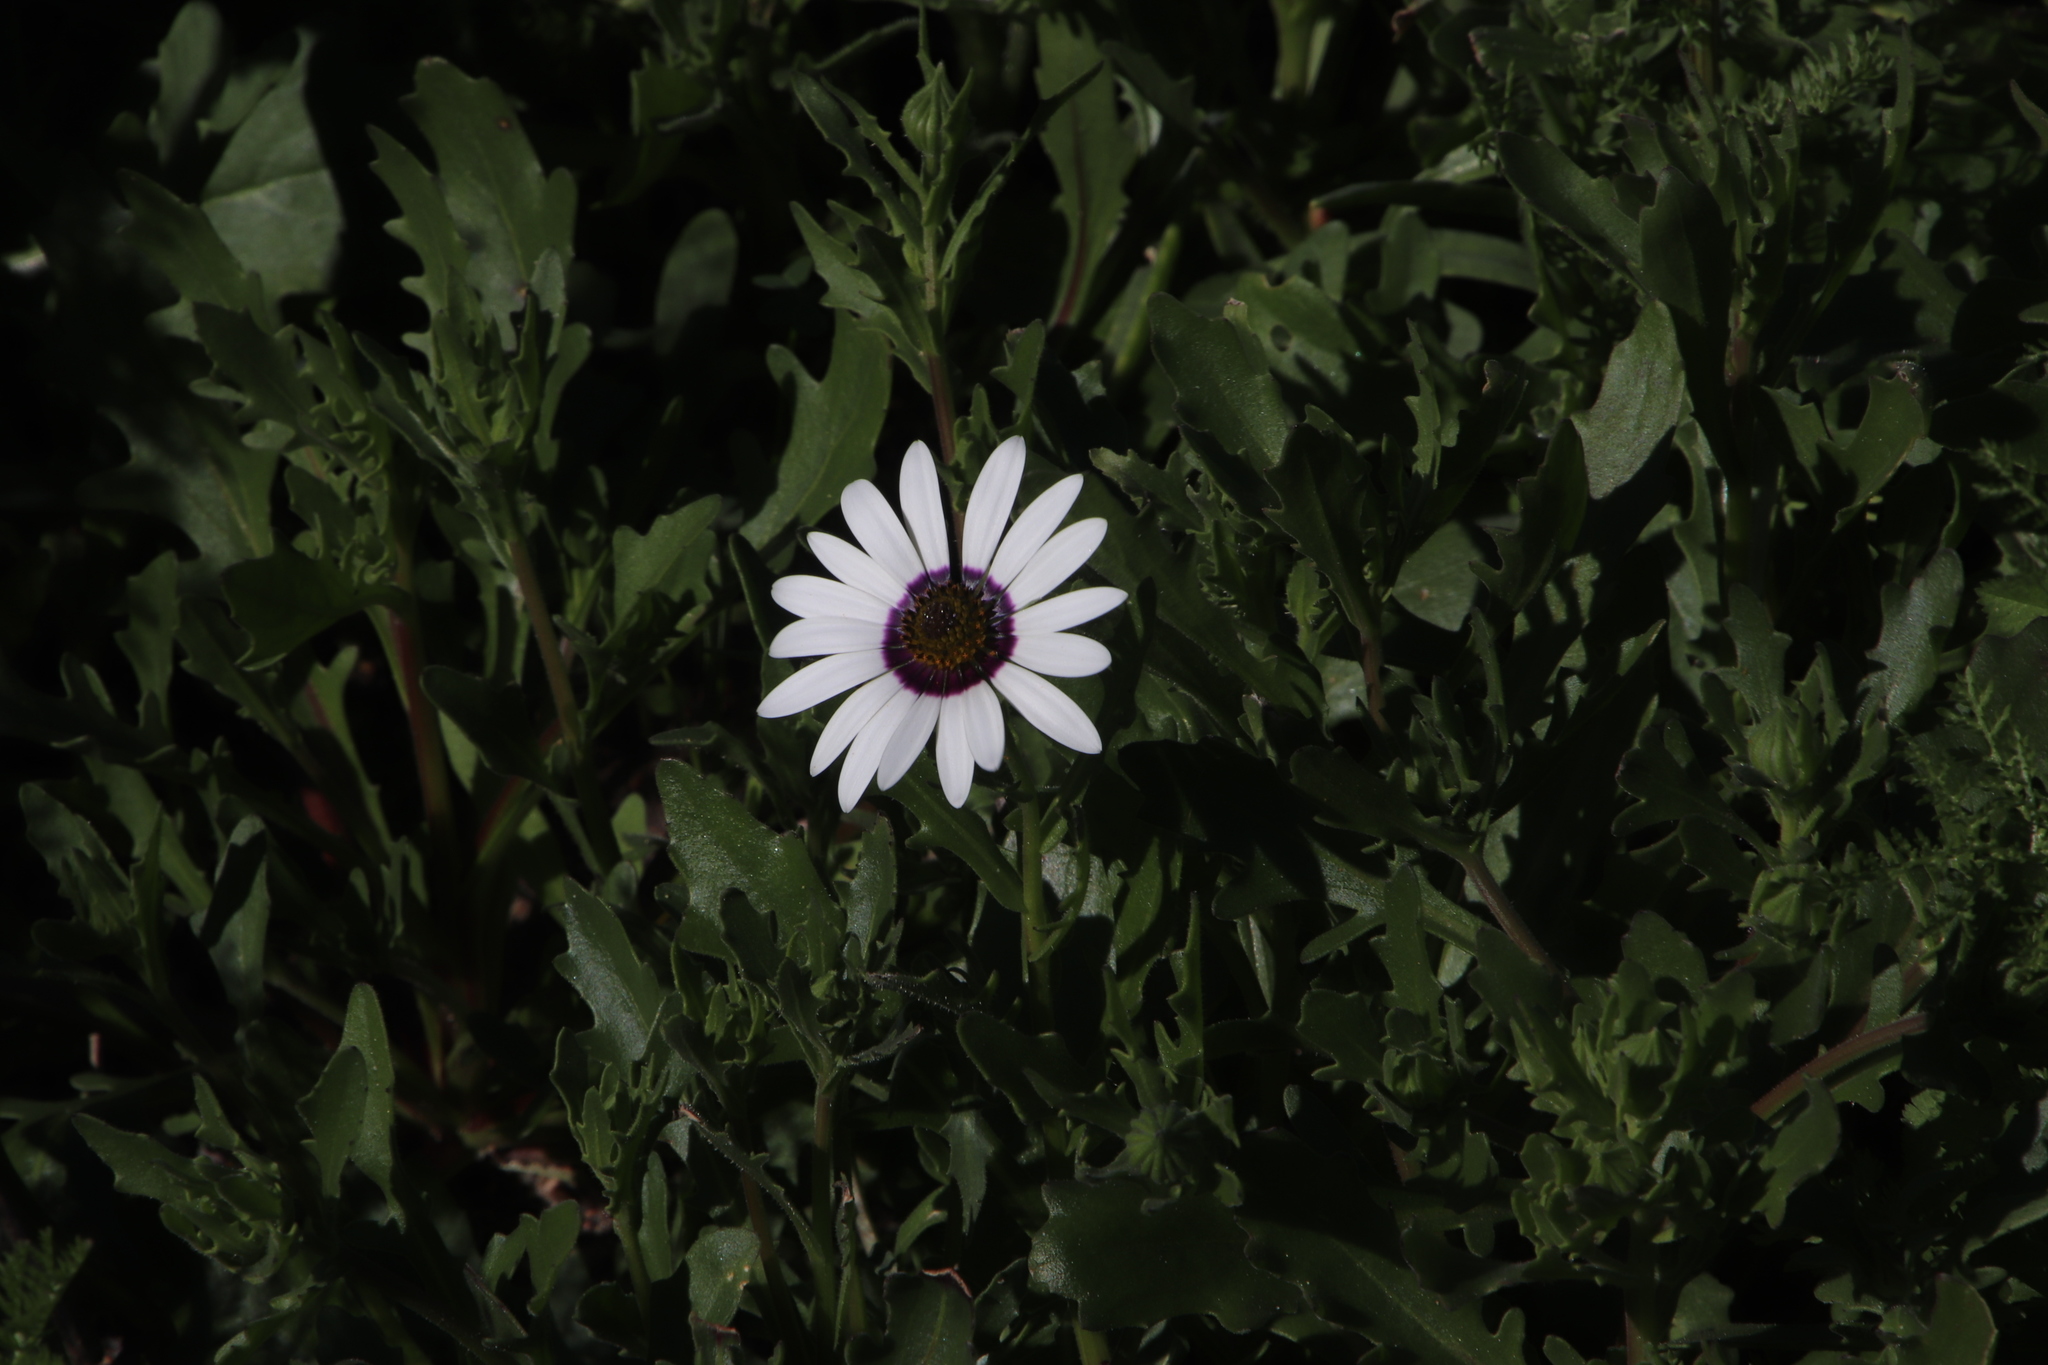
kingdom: Plantae
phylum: Tracheophyta
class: Magnoliopsida
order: Asterales
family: Asteraceae
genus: Dimorphotheca
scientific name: Dimorphotheca pluvialis
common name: Weather prophet
